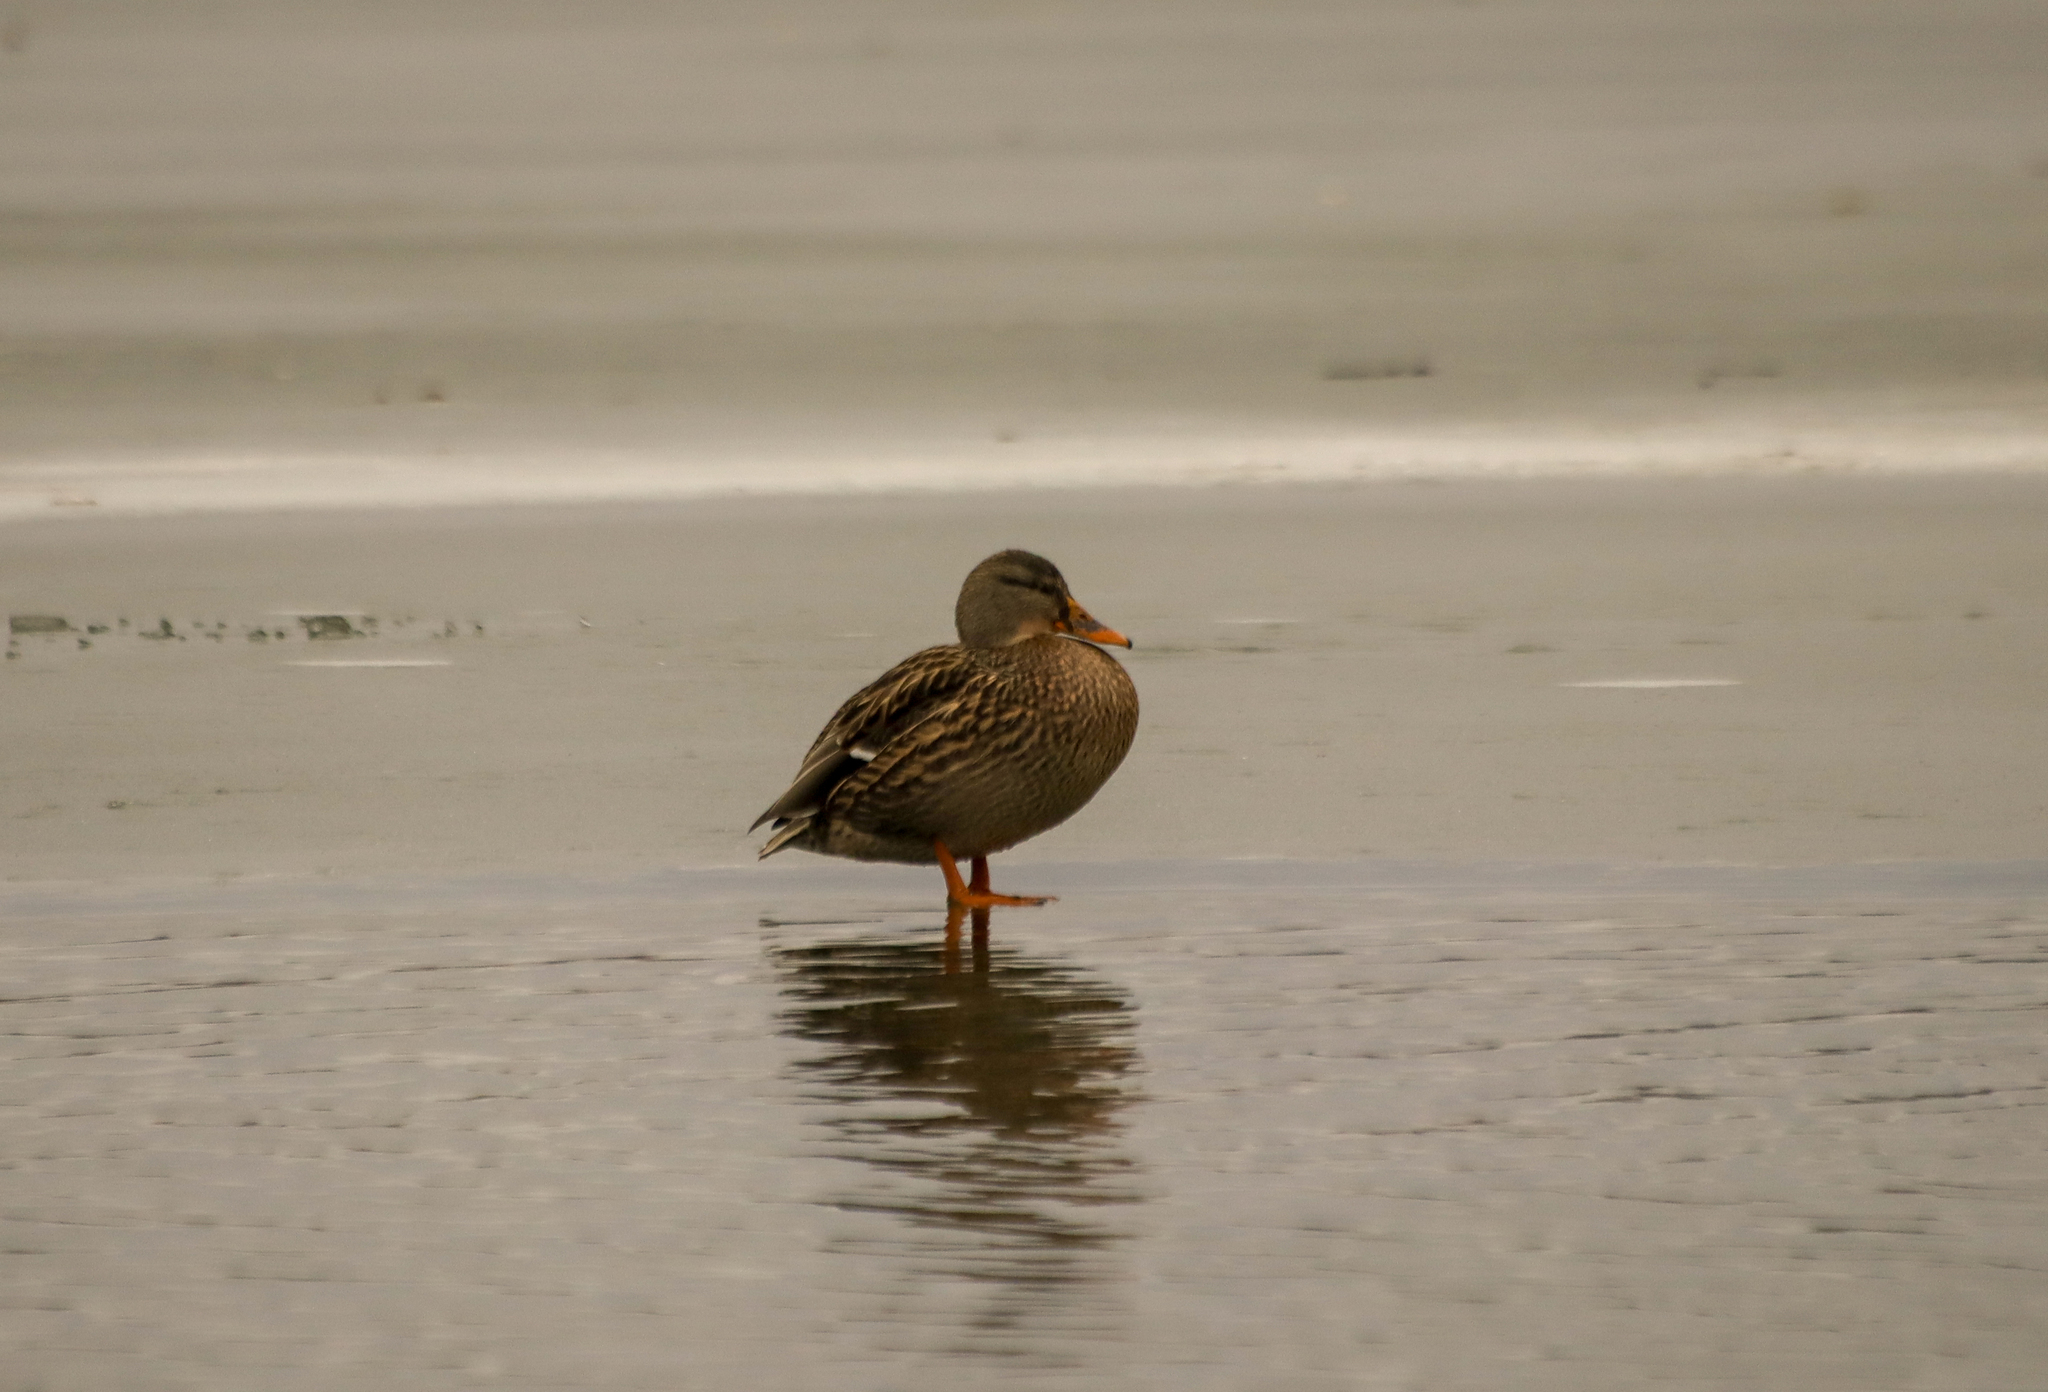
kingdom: Animalia
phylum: Chordata
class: Aves
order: Anseriformes
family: Anatidae
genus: Anas
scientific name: Anas platyrhynchos
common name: Mallard
